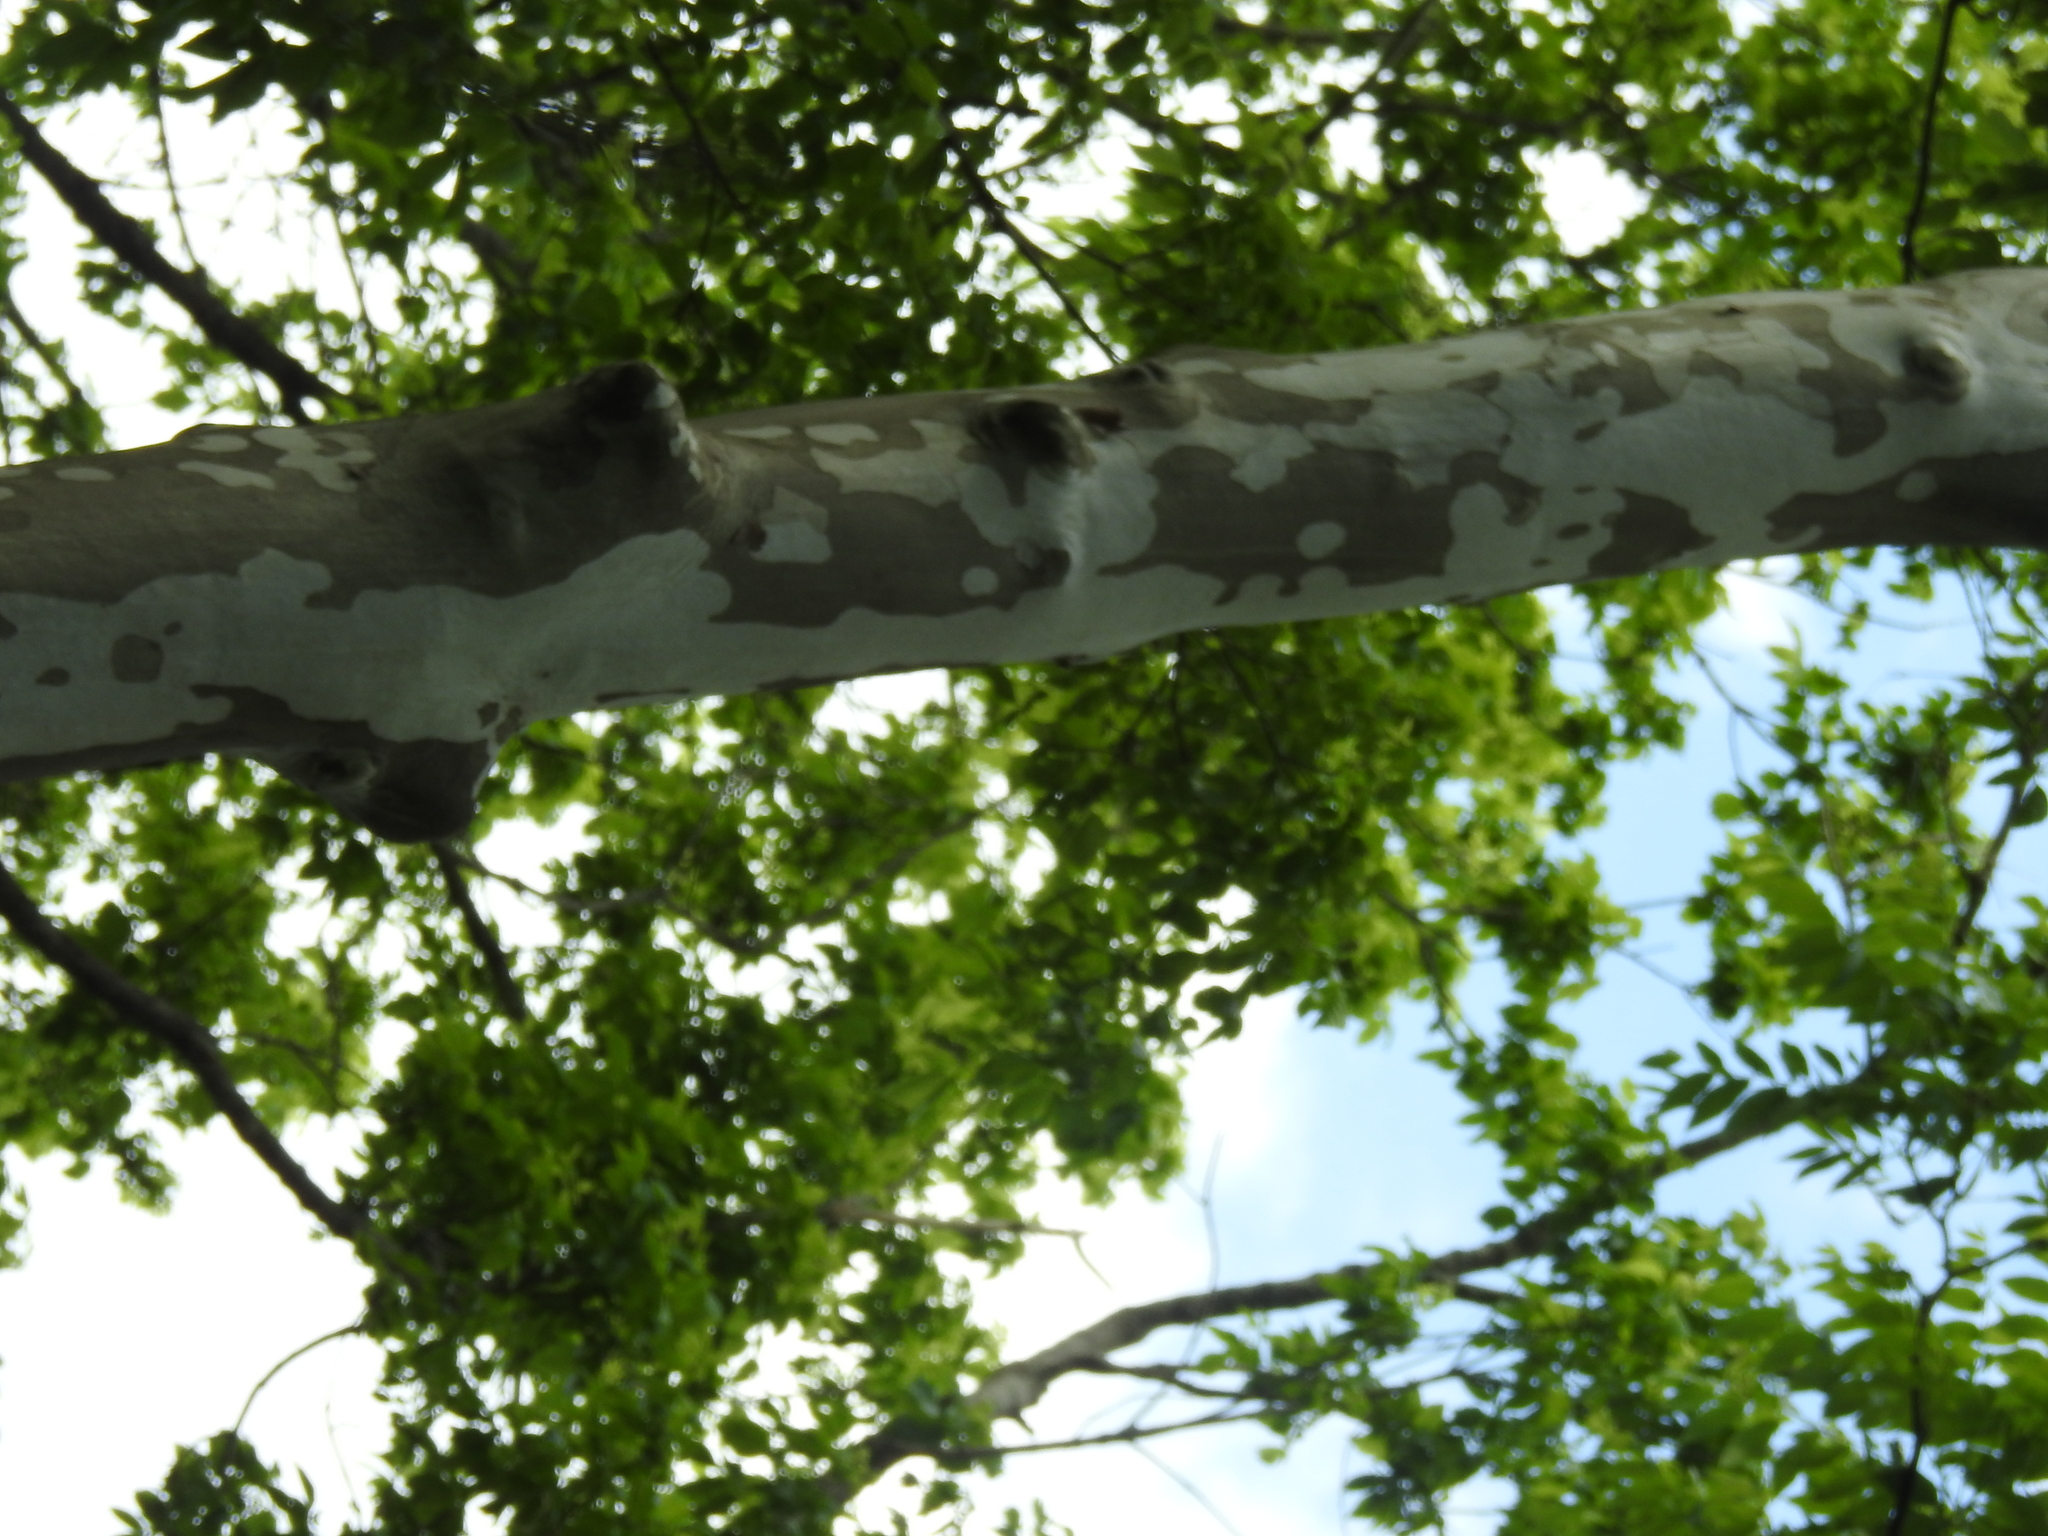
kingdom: Plantae
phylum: Tracheophyta
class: Magnoliopsida
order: Proteales
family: Platanaceae
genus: Platanus
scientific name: Platanus occidentalis
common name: American sycamore
